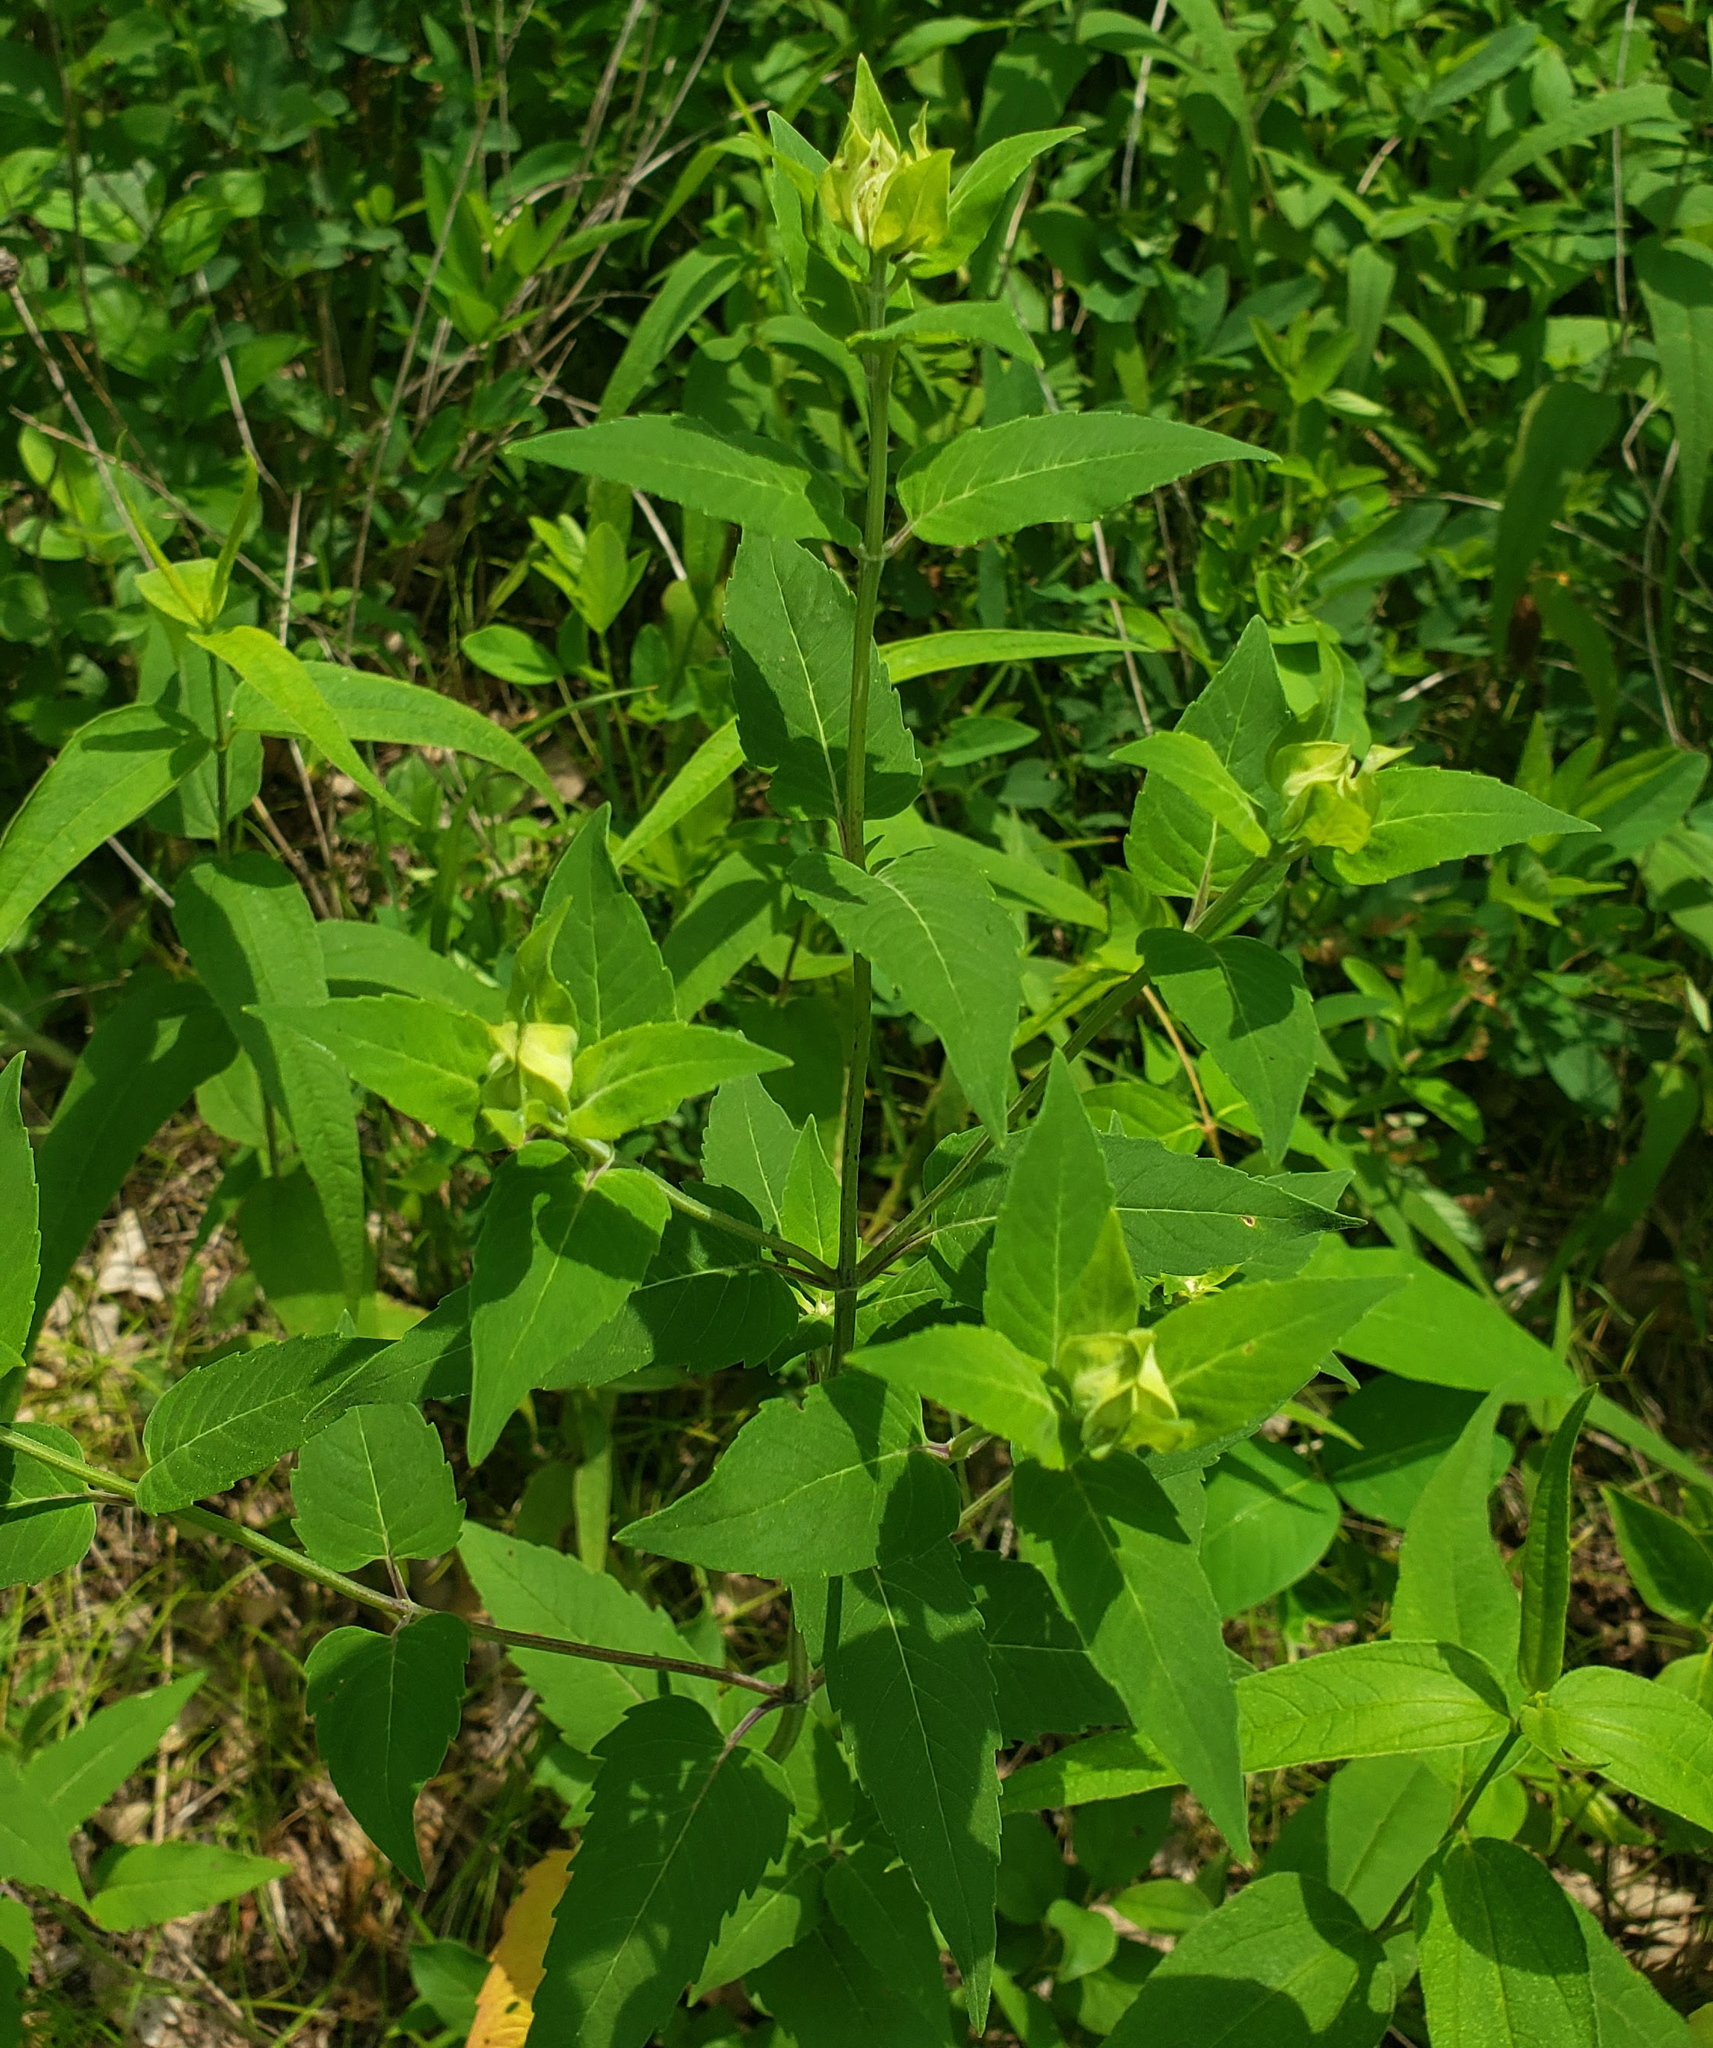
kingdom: Plantae
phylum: Tracheophyta
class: Magnoliopsida
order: Lamiales
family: Lamiaceae
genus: Monarda
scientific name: Monarda fistulosa
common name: Purple beebalm
